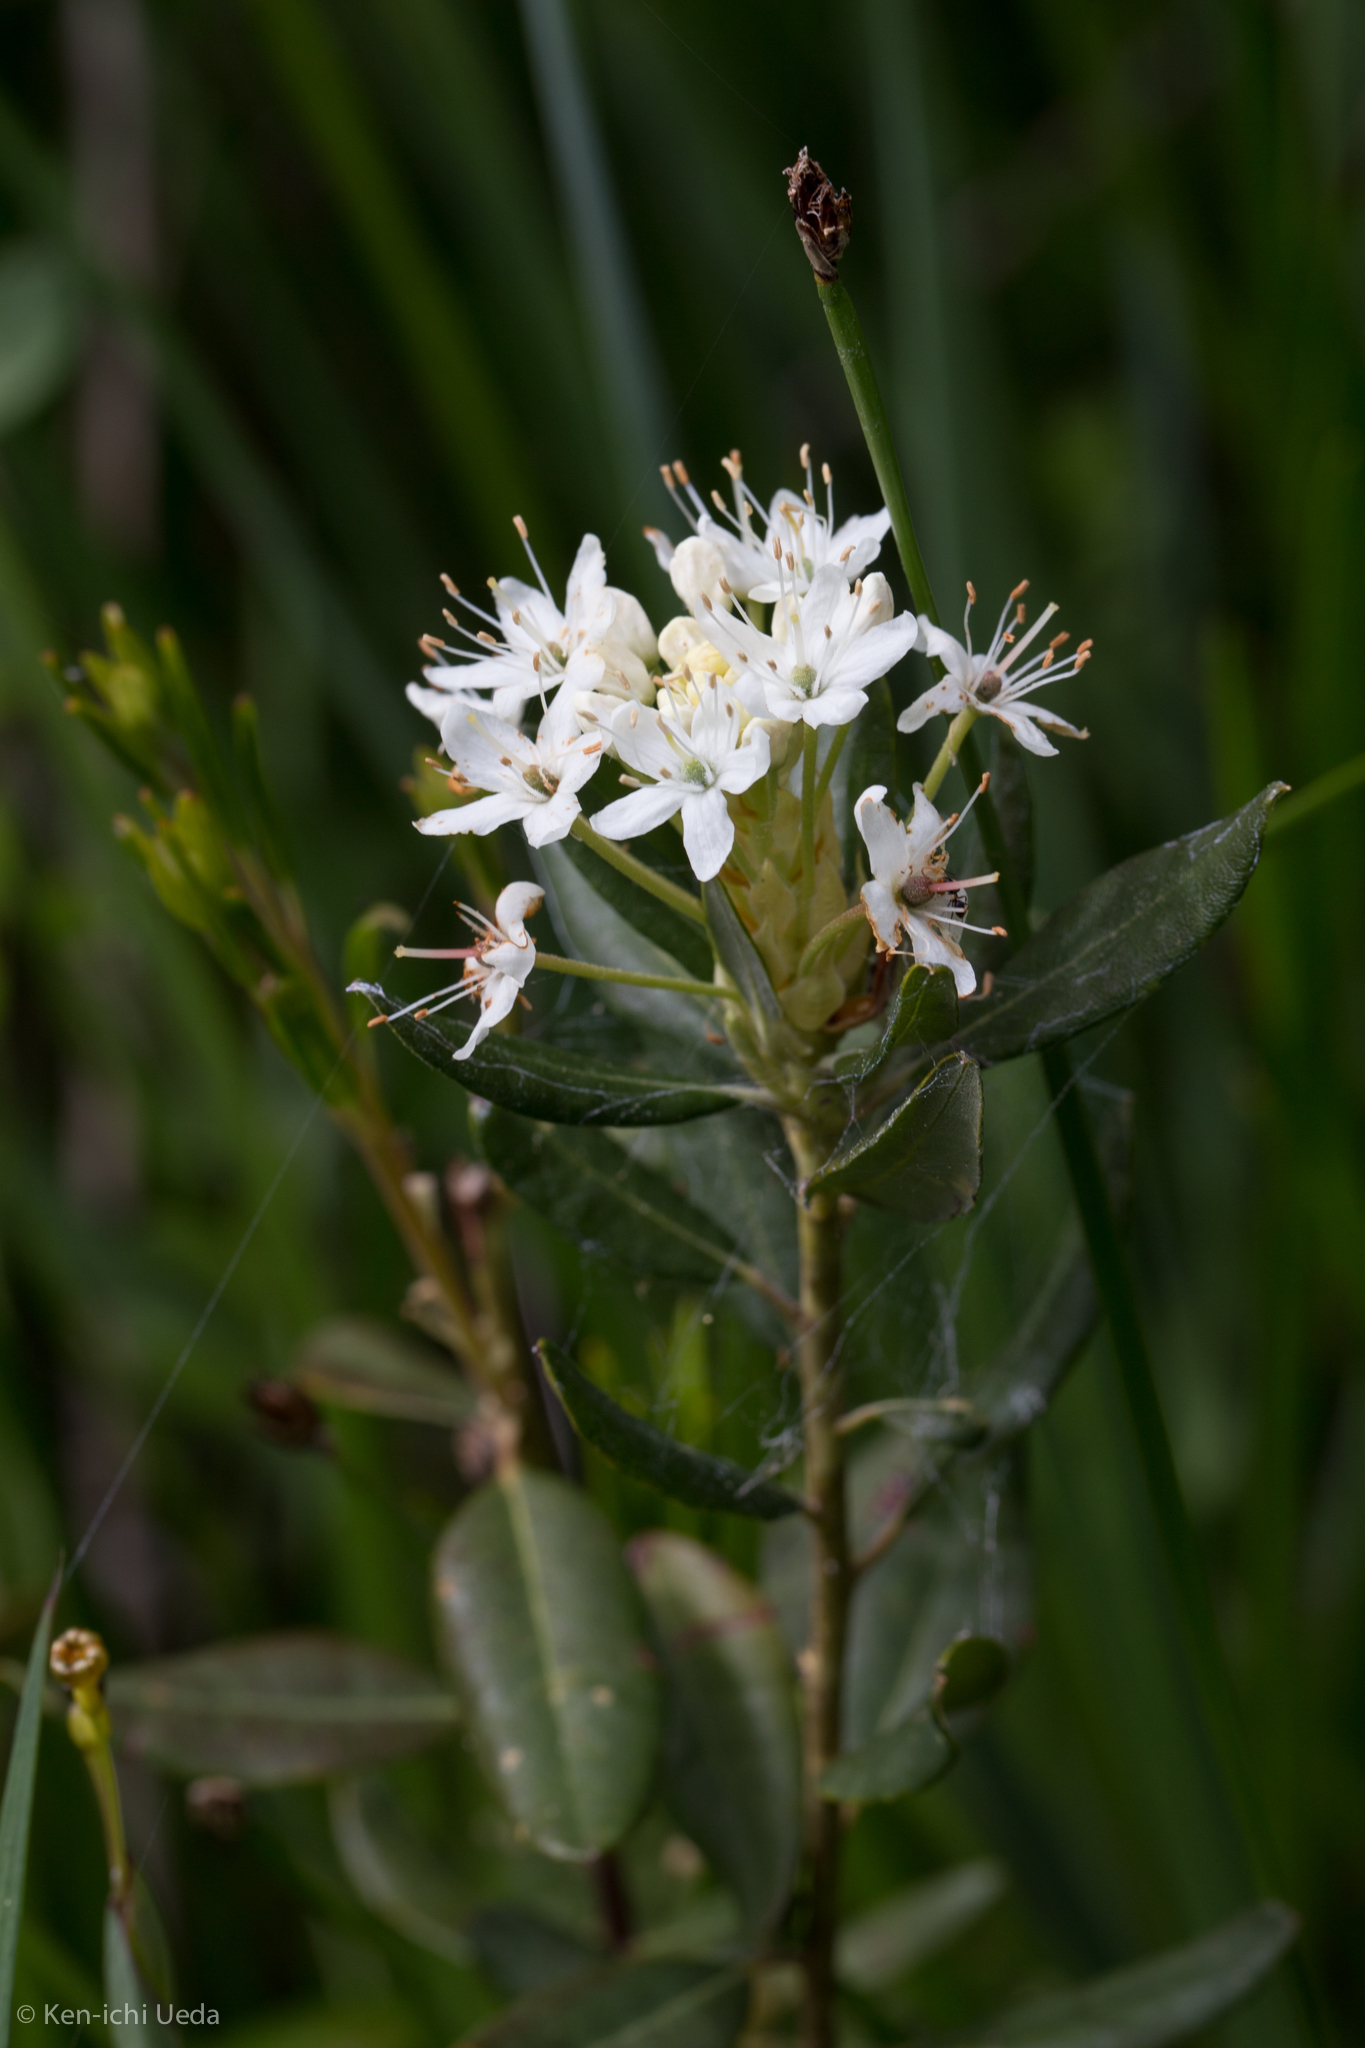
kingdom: Plantae
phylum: Tracheophyta
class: Magnoliopsida
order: Ericales
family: Ericaceae
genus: Rhododendron
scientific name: Rhododendron columbianum
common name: Western labrador tea
